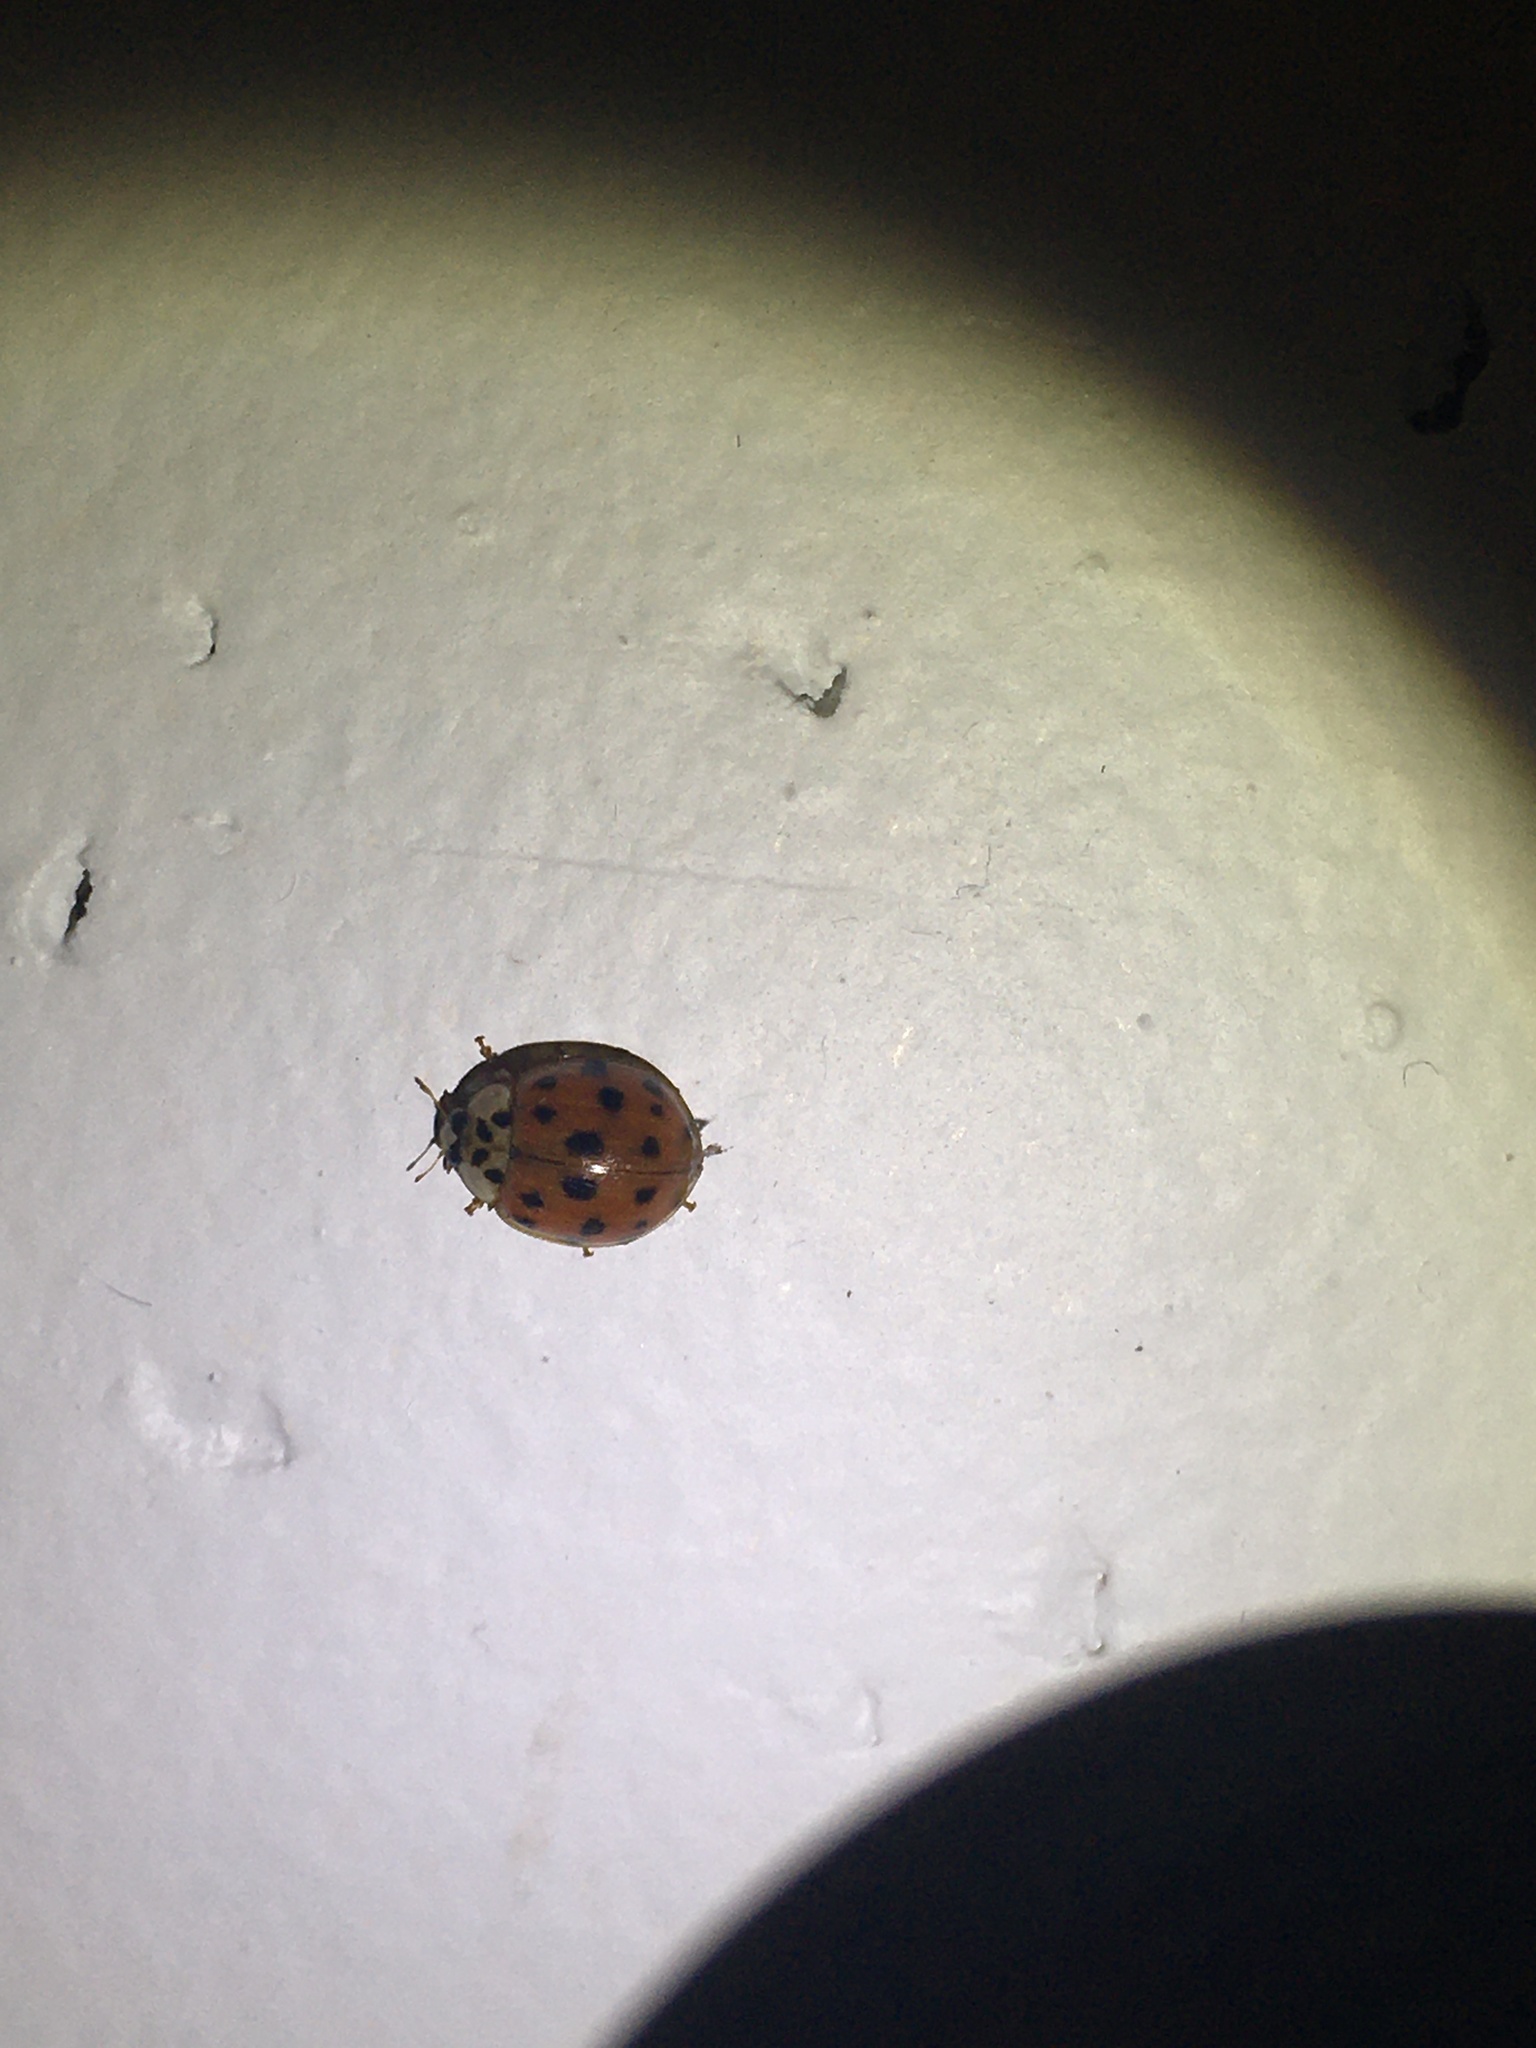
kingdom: Animalia
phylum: Arthropoda
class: Insecta
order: Coleoptera
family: Coccinellidae
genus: Harmonia
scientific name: Harmonia axyridis
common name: Harlequin ladybird
